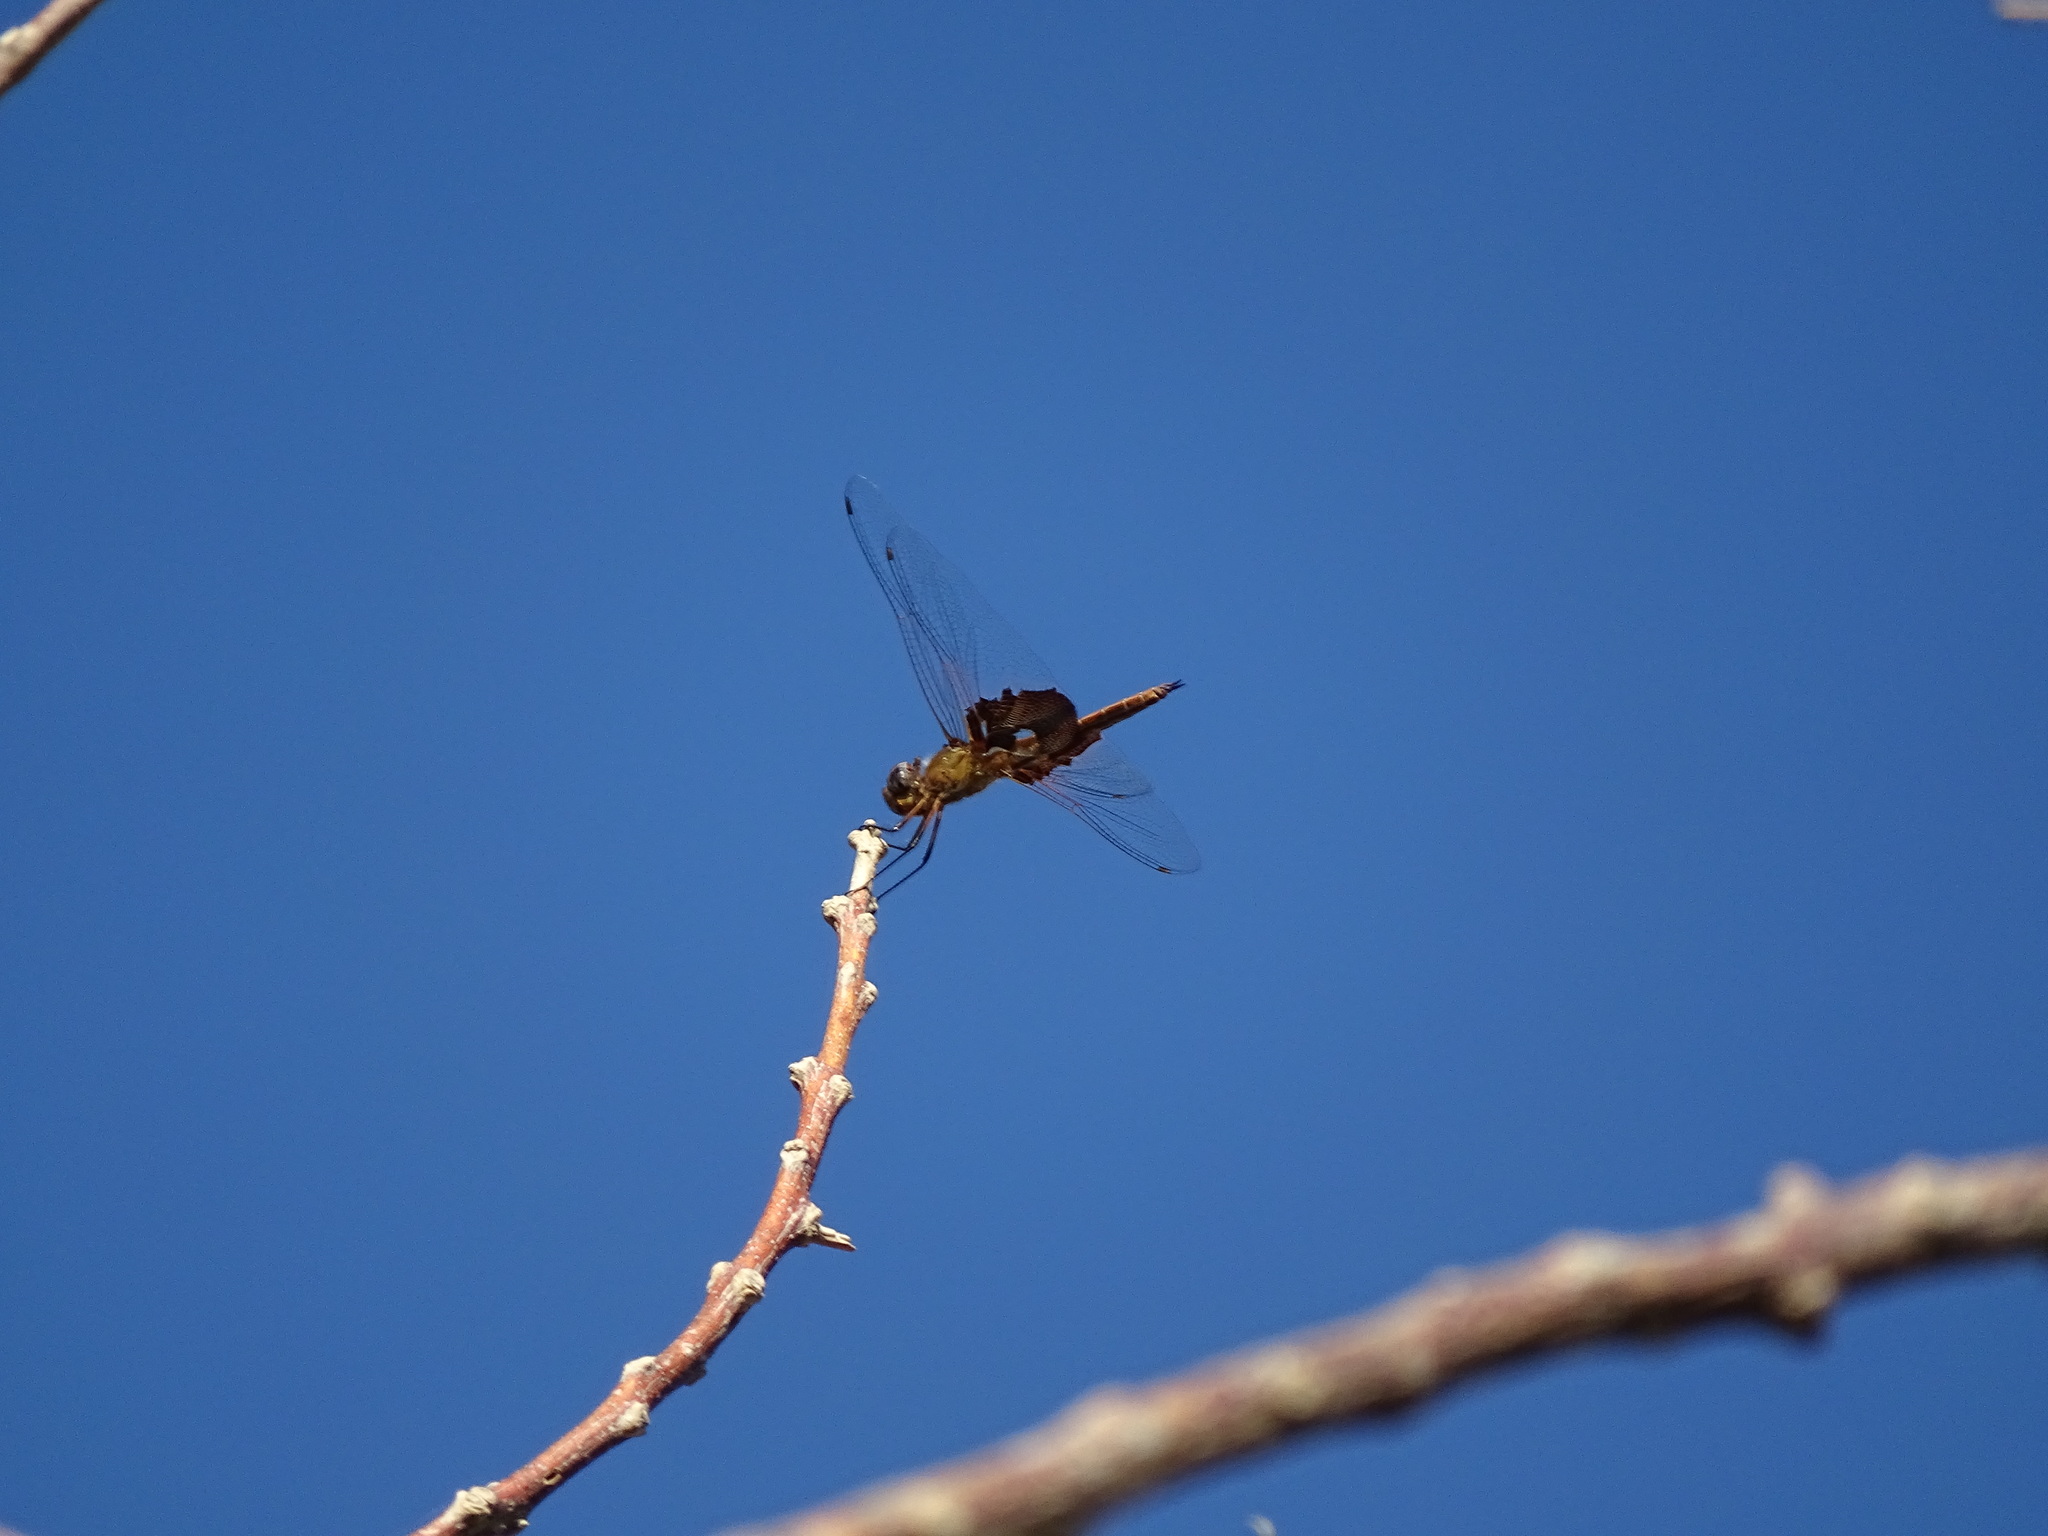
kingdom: Animalia
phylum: Arthropoda
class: Insecta
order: Odonata
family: Libellulidae
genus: Tramea
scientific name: Tramea onusta
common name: Red saddlebags
